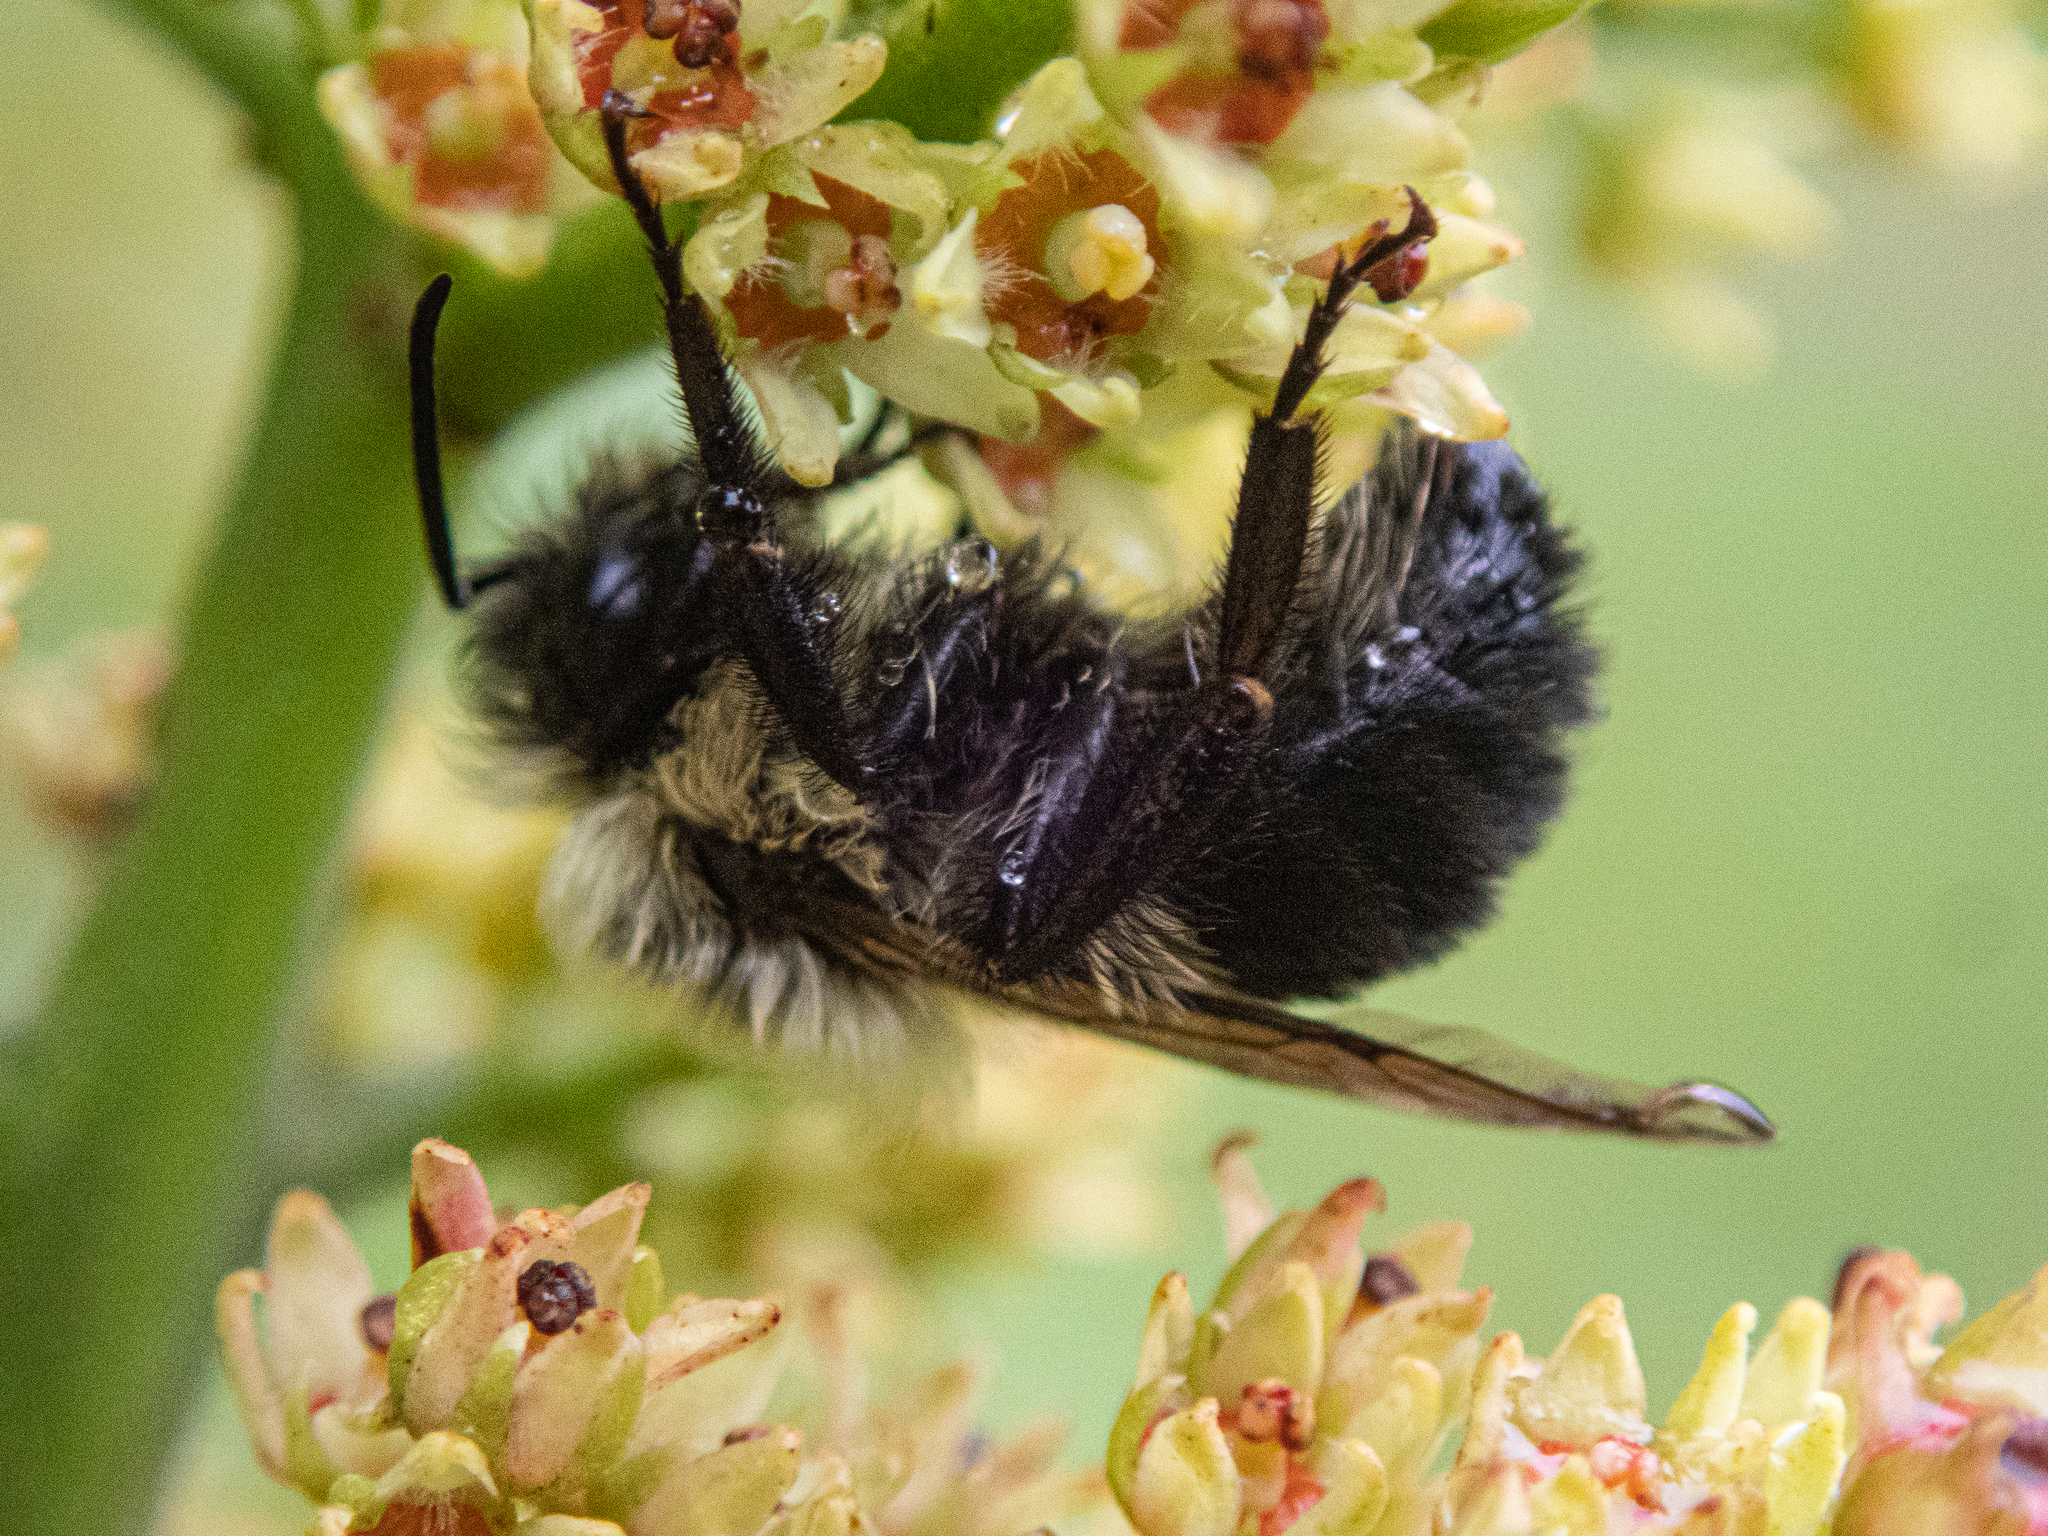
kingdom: Animalia
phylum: Arthropoda
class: Insecta
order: Hymenoptera
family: Apidae
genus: Bombus
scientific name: Bombus impatiens
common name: Common eastern bumble bee
